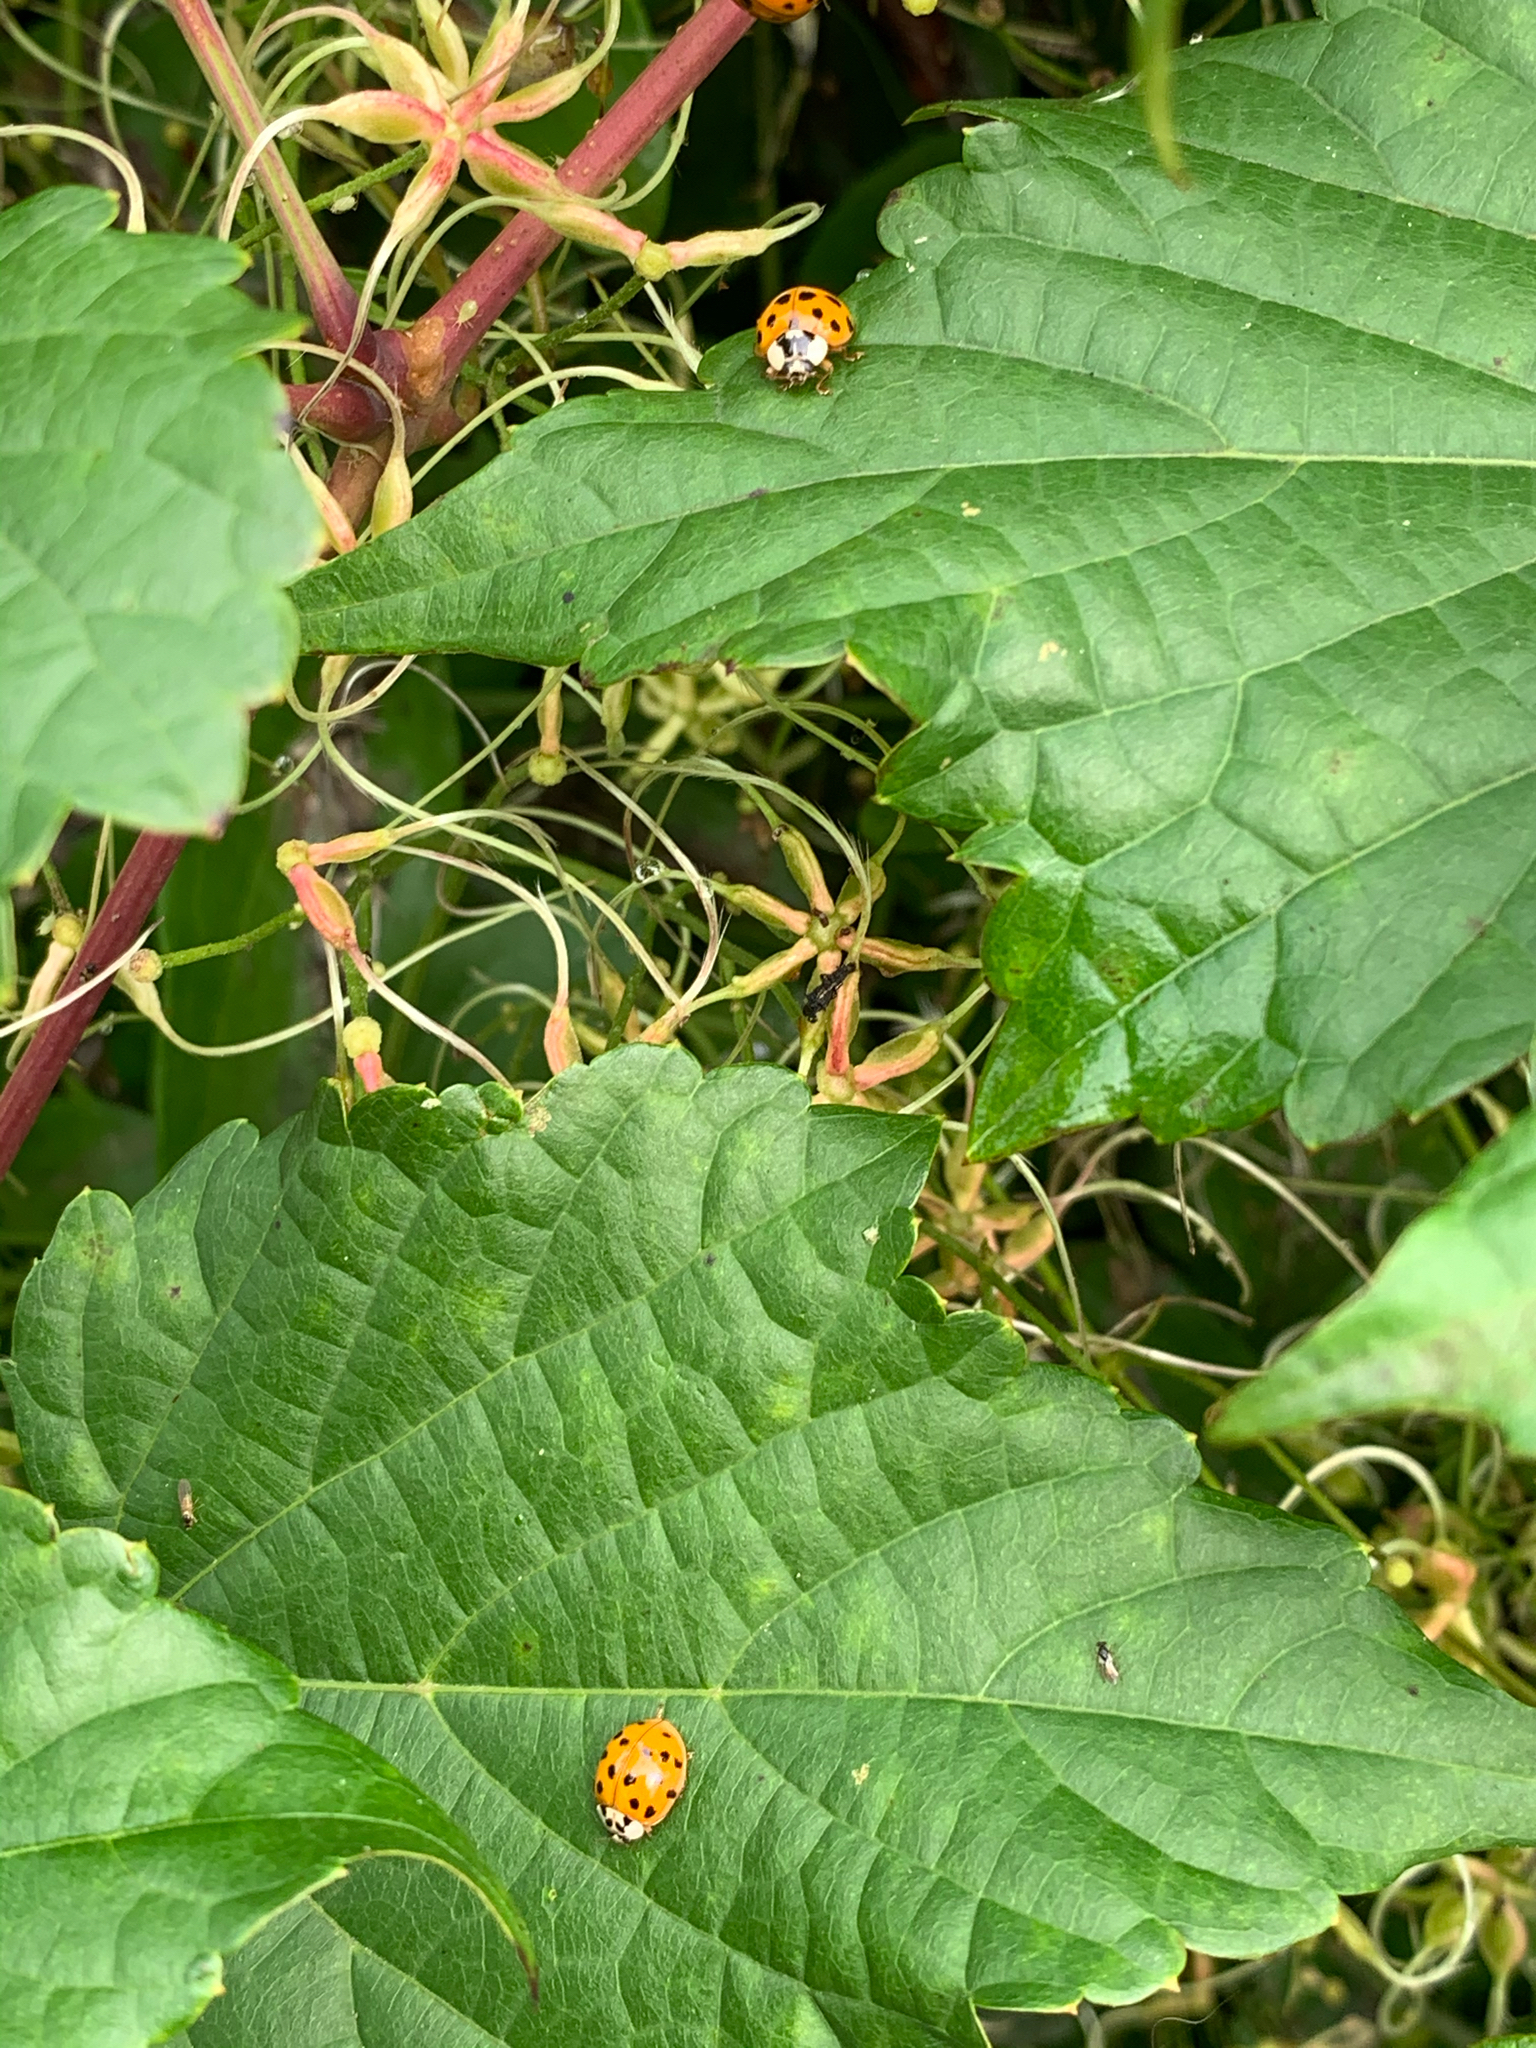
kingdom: Animalia
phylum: Arthropoda
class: Insecta
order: Coleoptera
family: Coccinellidae
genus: Harmonia
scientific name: Harmonia axyridis
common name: Harlequin ladybird
